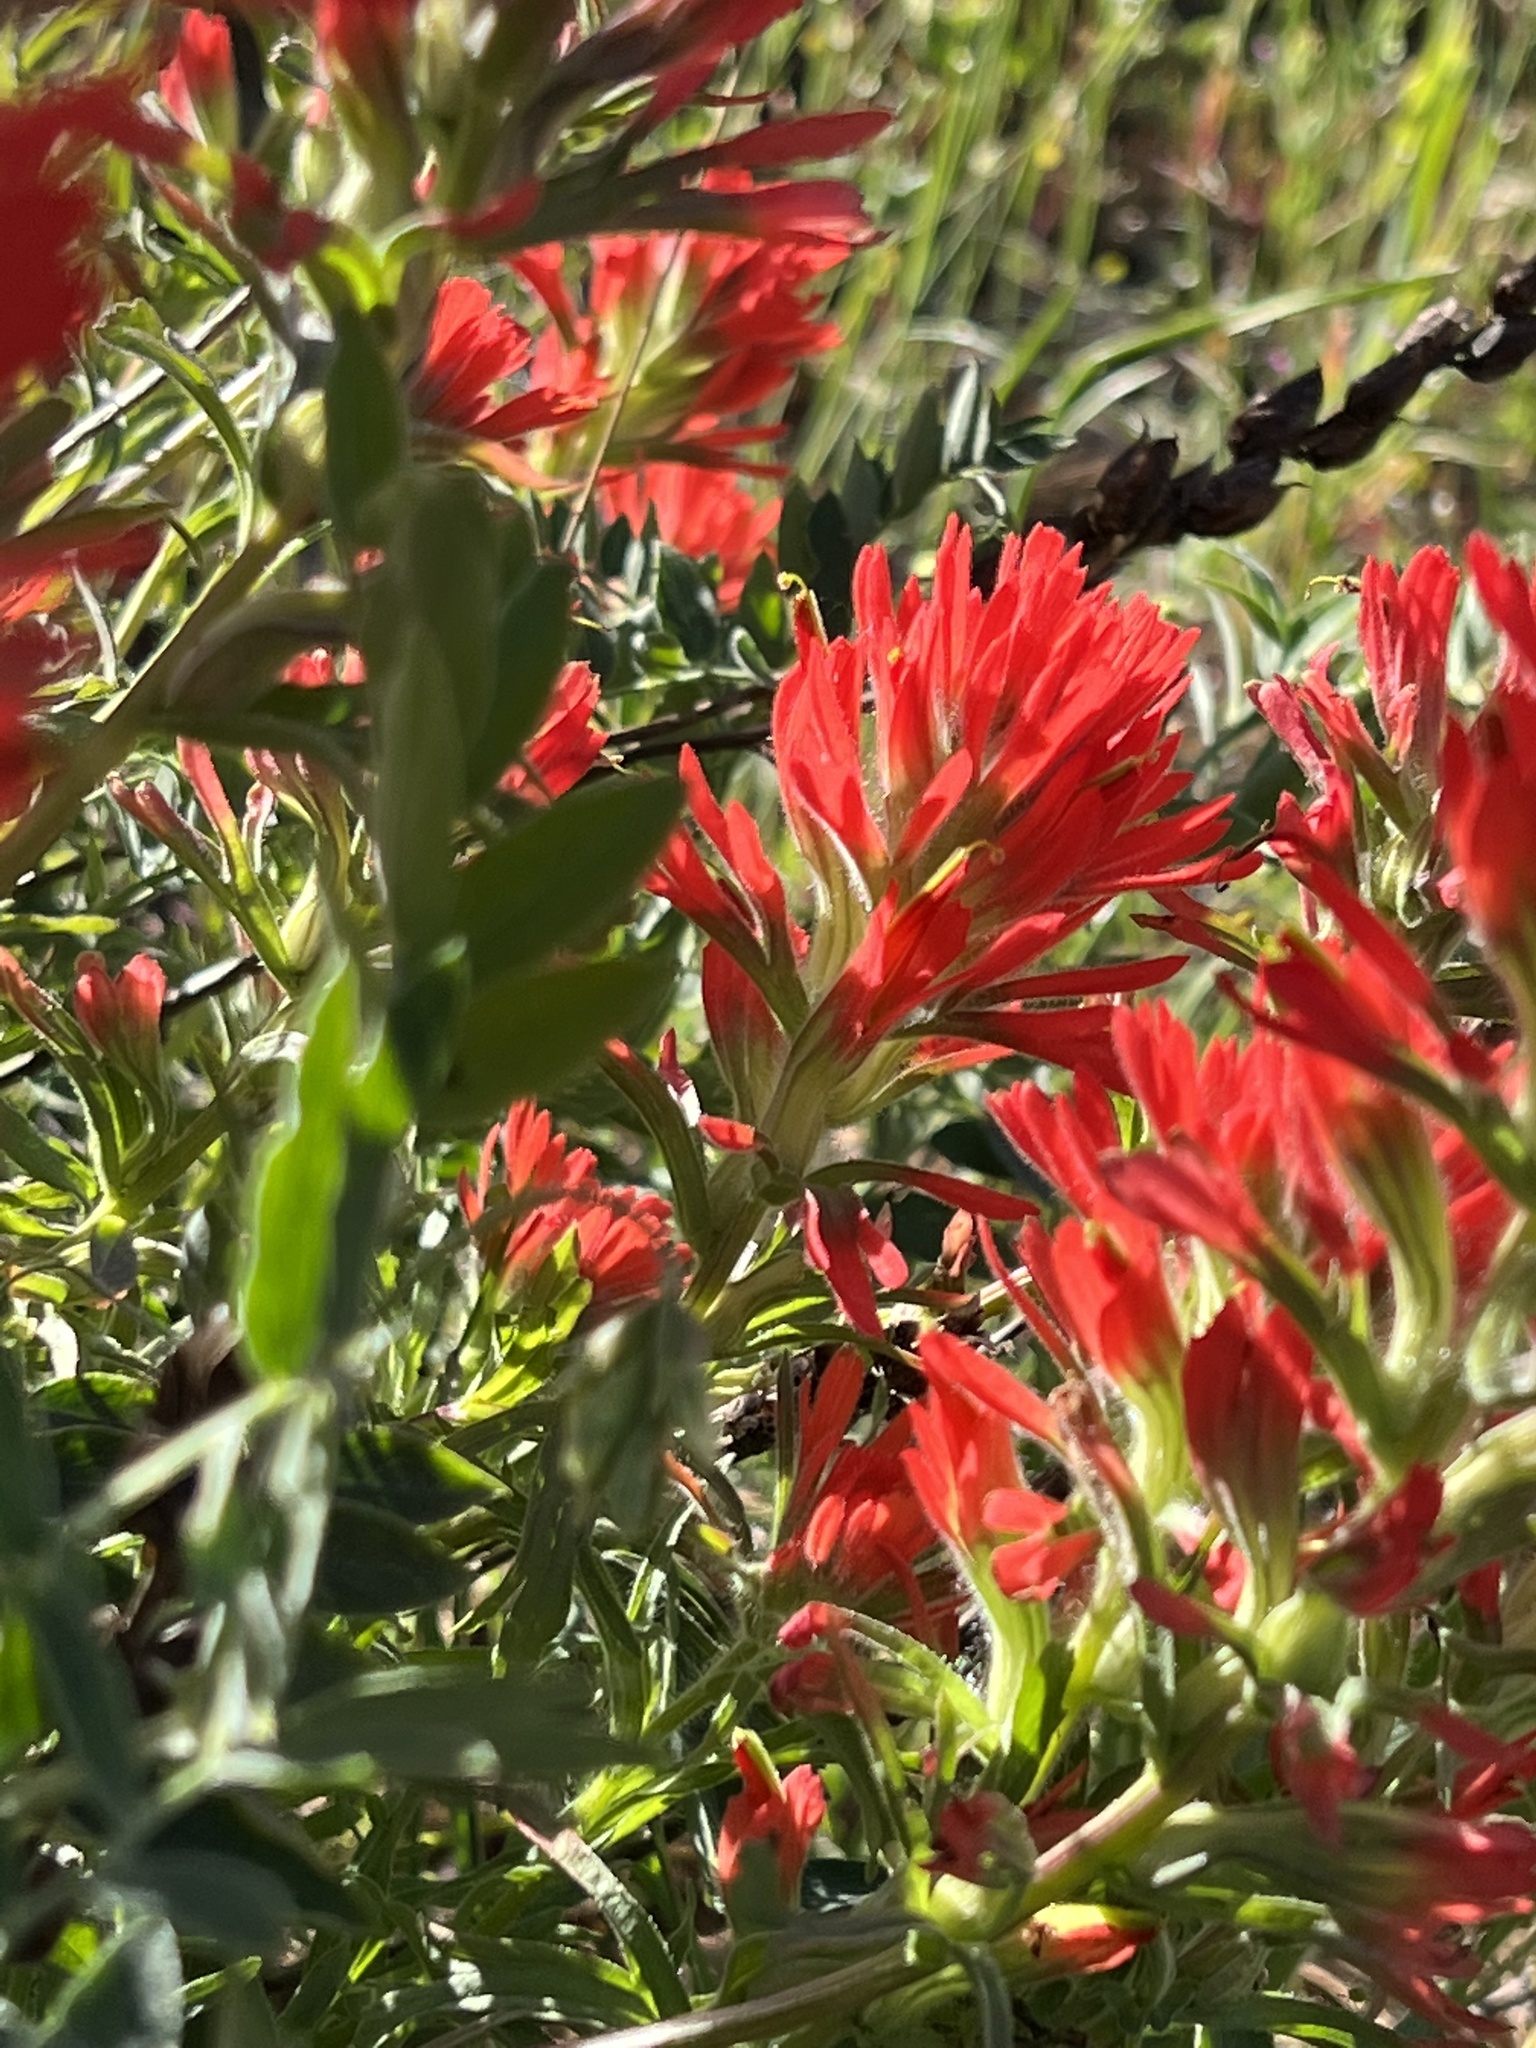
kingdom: Plantae
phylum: Tracheophyta
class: Magnoliopsida
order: Lamiales
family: Orobanchaceae
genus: Castilleja
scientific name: Castilleja affinis
